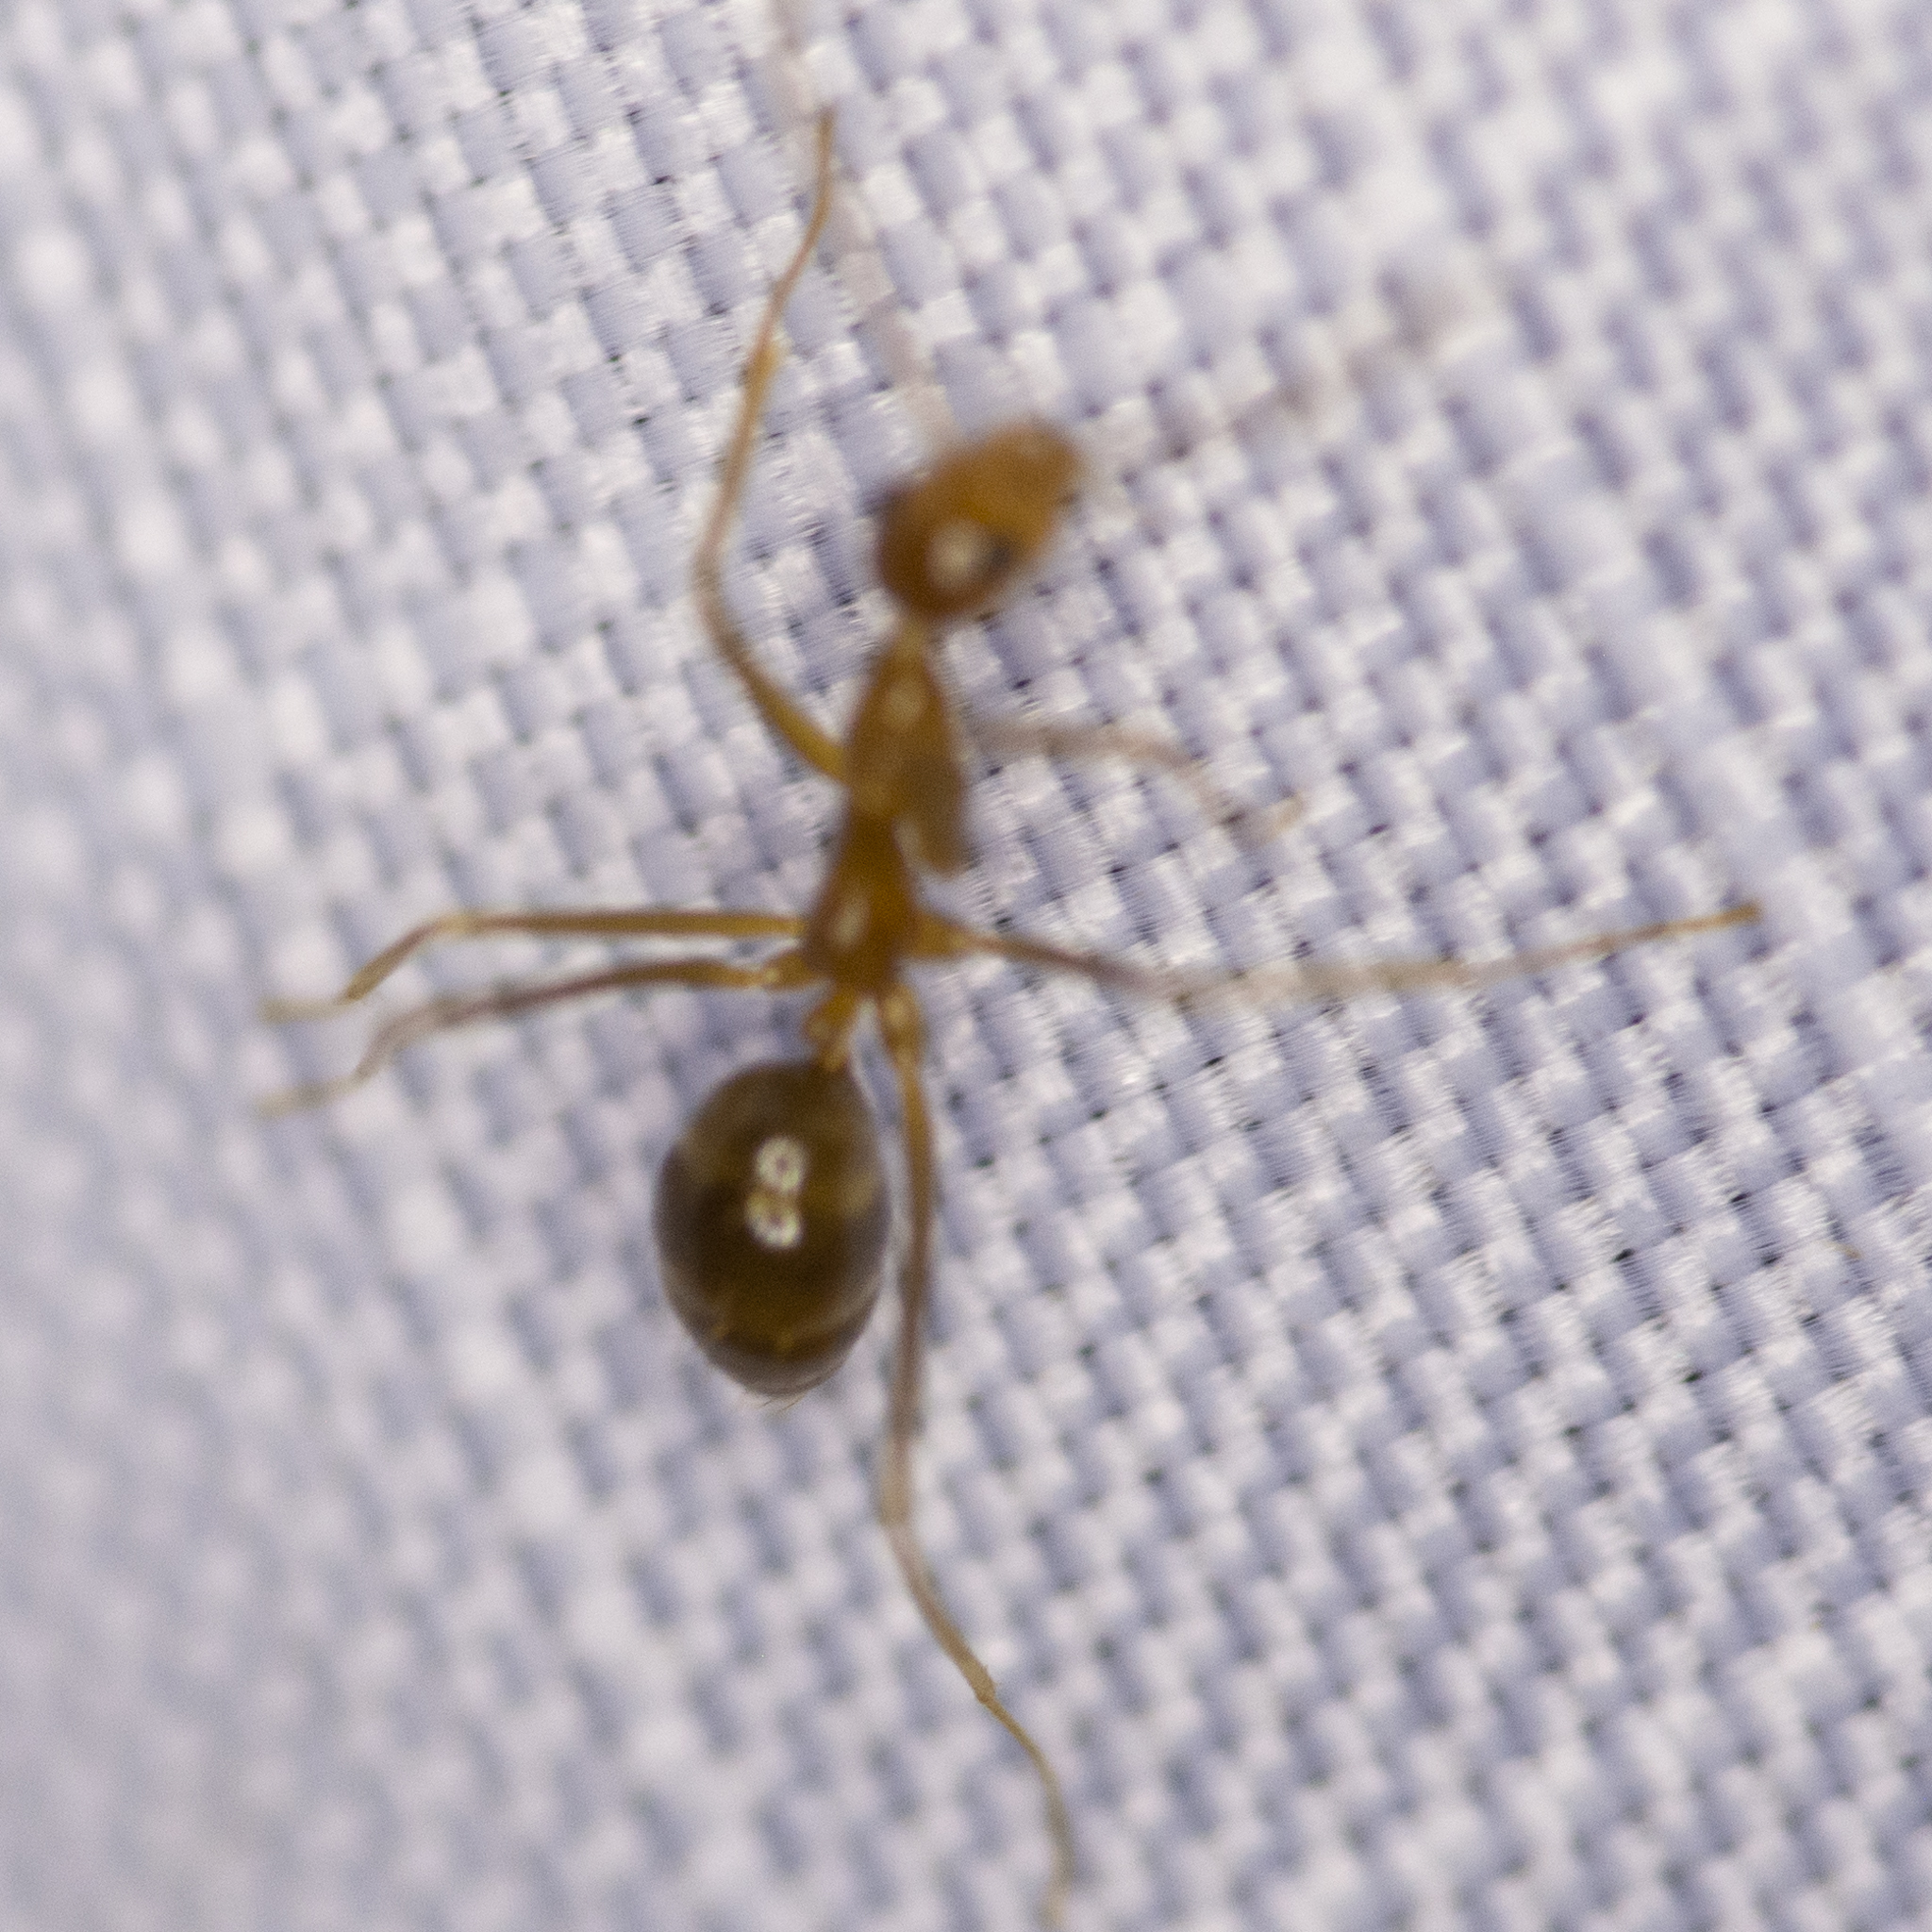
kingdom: Animalia
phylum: Arthropoda
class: Insecta
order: Hymenoptera
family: Formicidae
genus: Anoplolepis
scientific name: Anoplolepis gracilipes
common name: Ant
